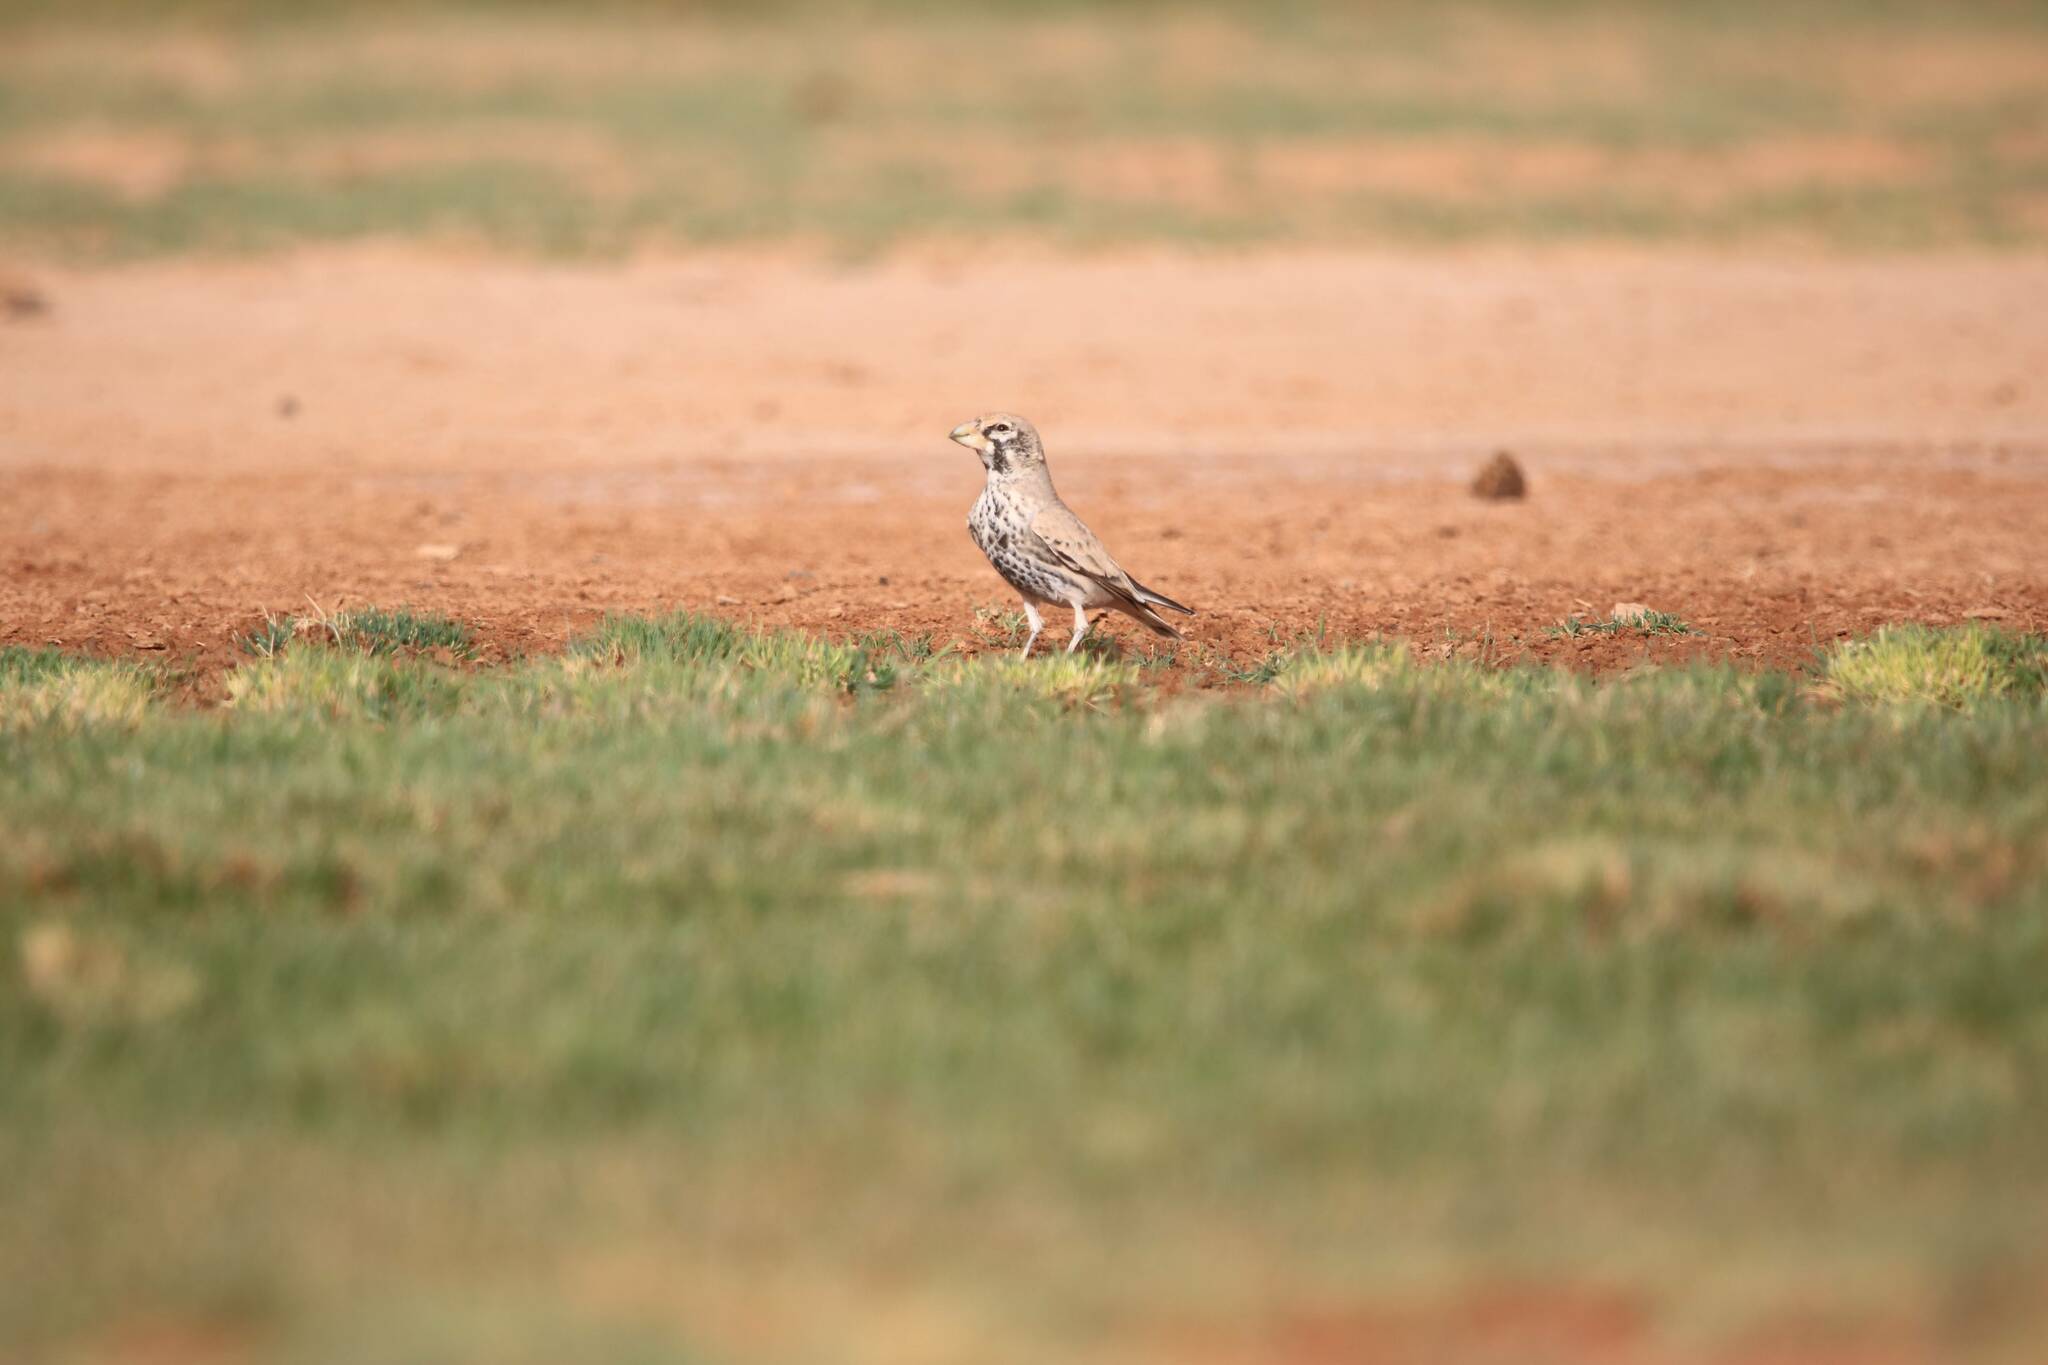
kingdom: Animalia
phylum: Chordata
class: Aves
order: Passeriformes
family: Alaudidae
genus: Ramphocoris
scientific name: Ramphocoris clotbey
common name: Thick-billed lark
